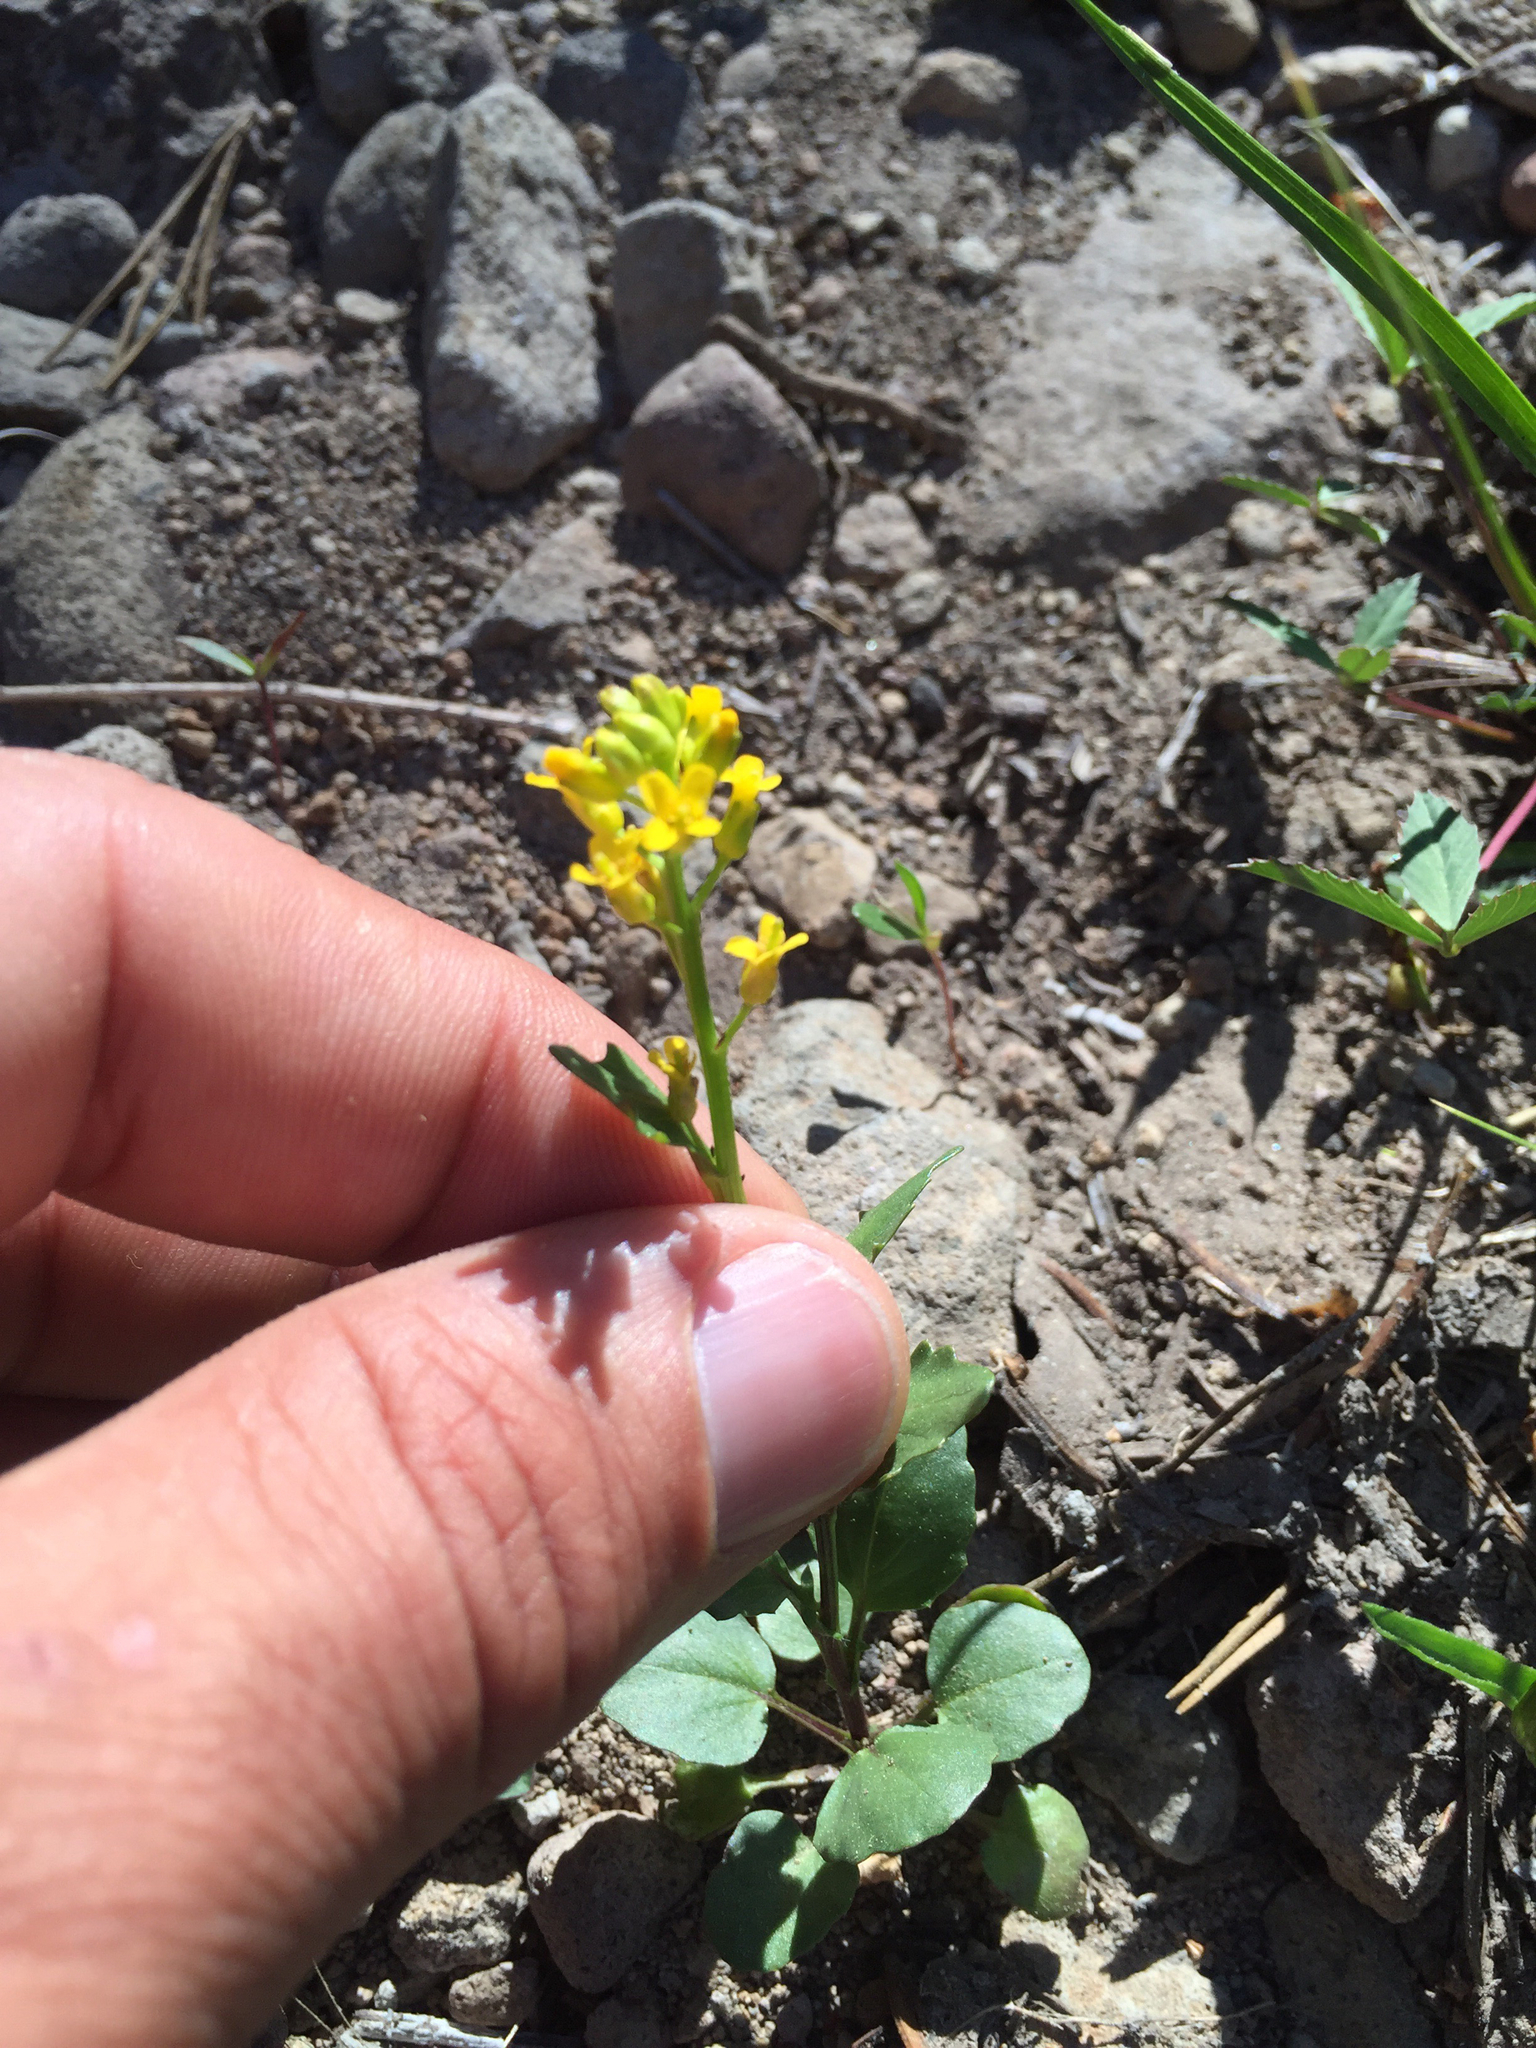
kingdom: Plantae
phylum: Tracheophyta
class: Magnoliopsida
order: Brassicales
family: Brassicaceae
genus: Barbarea
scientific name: Barbarea orthoceras
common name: American wintercress
